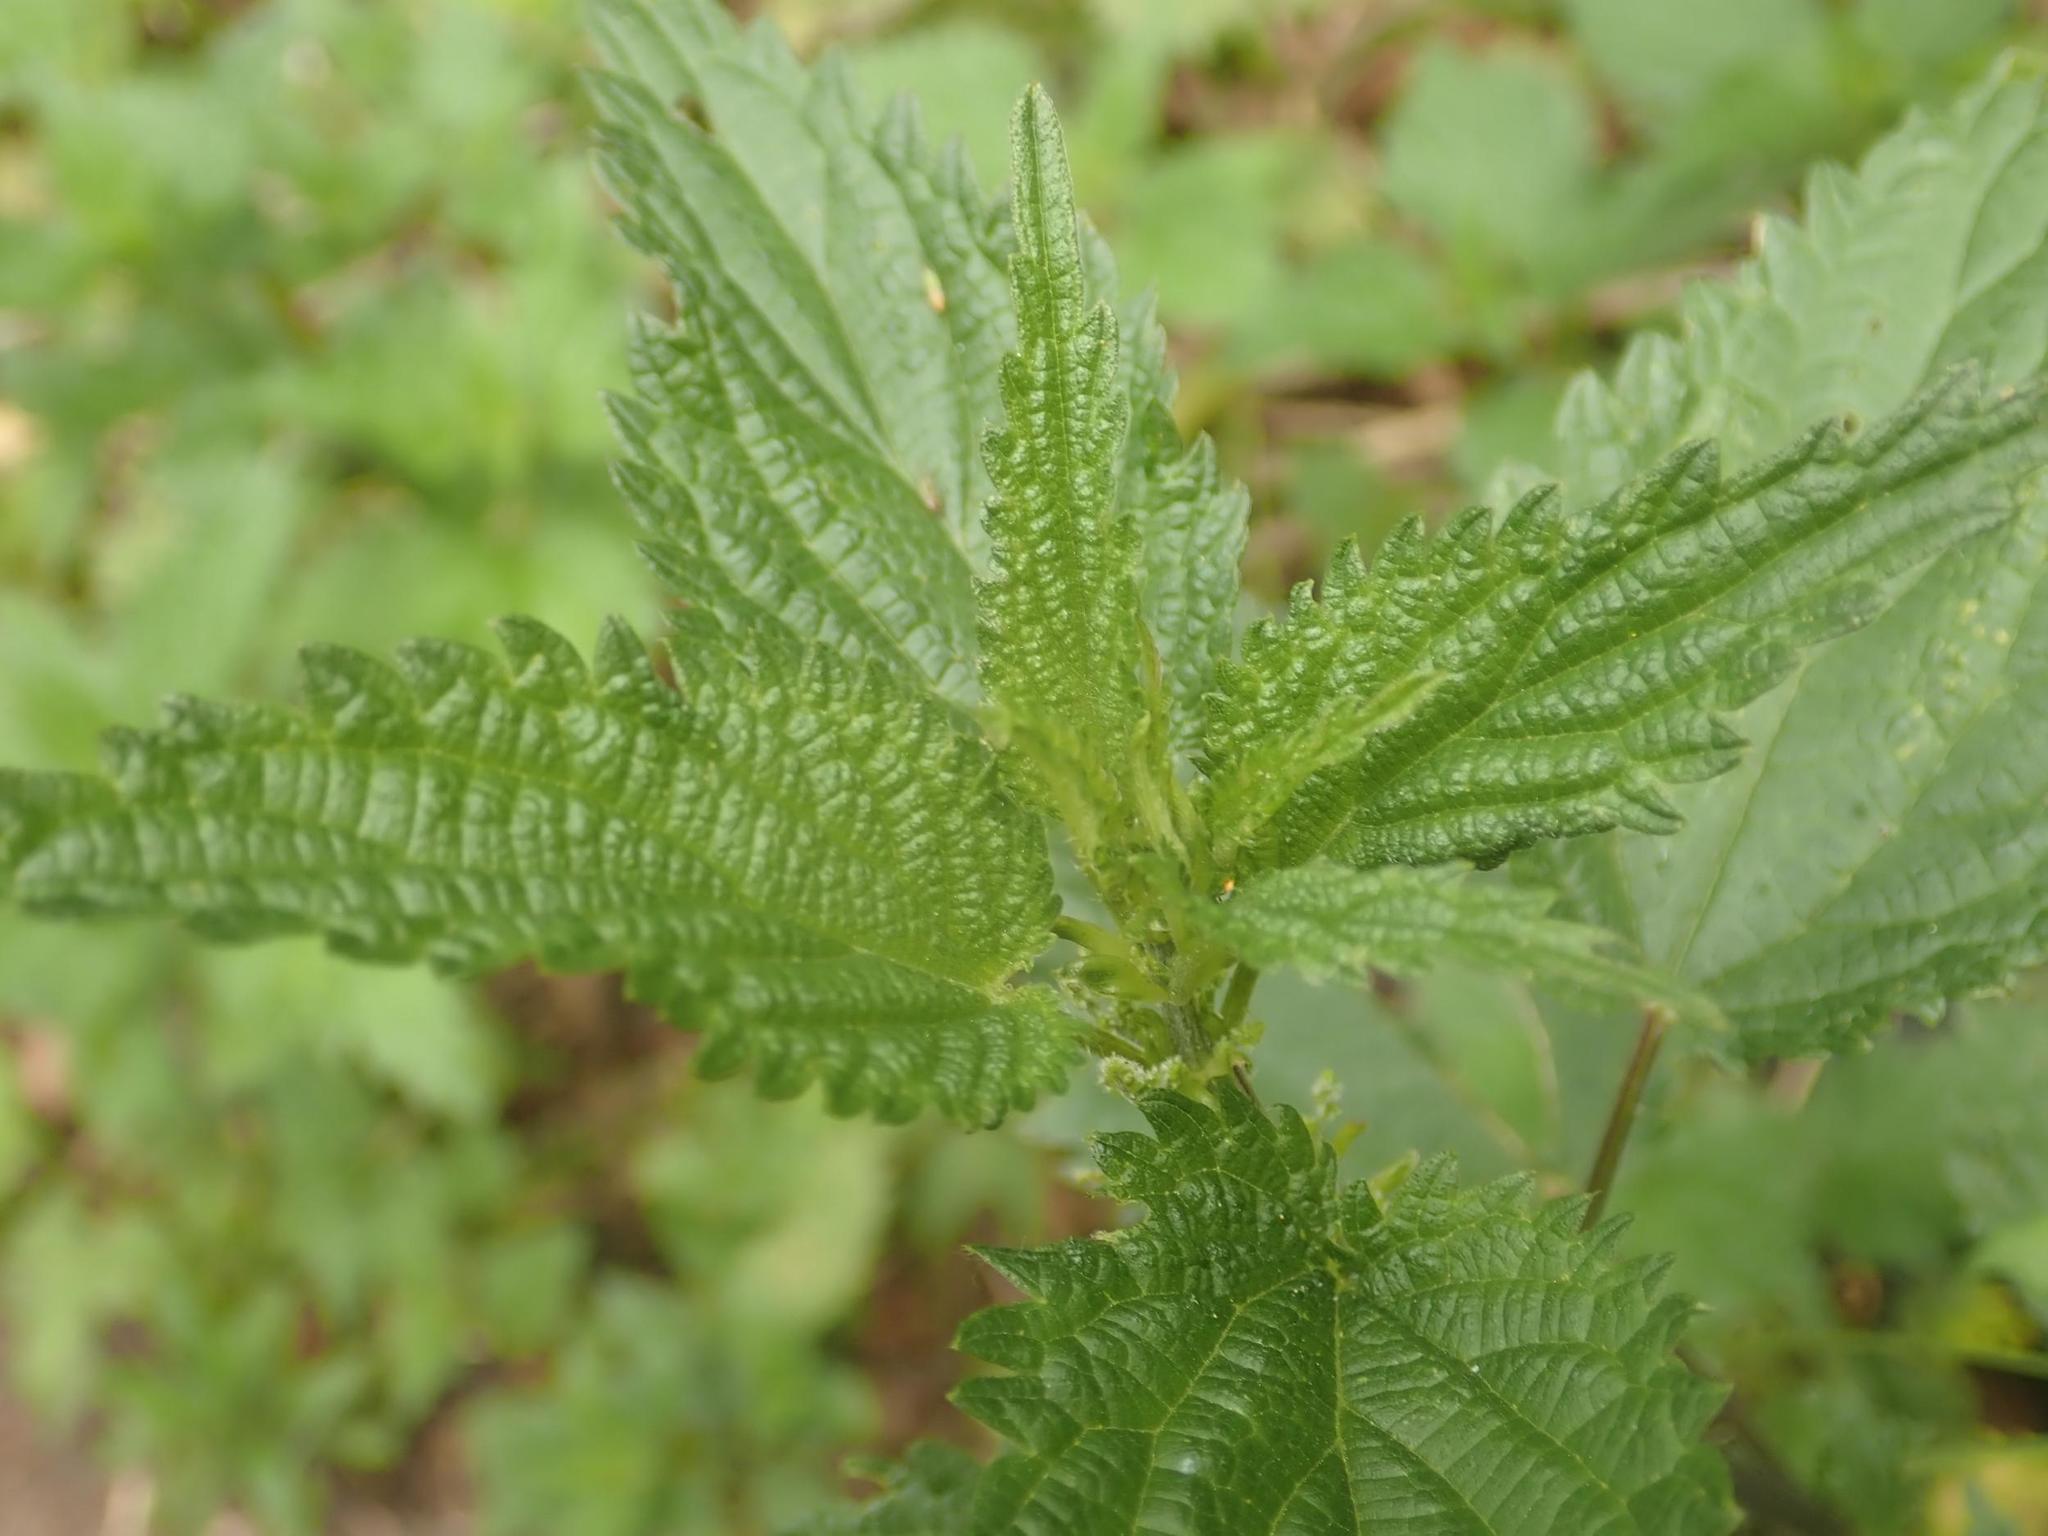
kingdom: Plantae
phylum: Tracheophyta
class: Magnoliopsida
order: Rosales
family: Urticaceae
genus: Urtica
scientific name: Urtica dioica
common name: Common nettle
